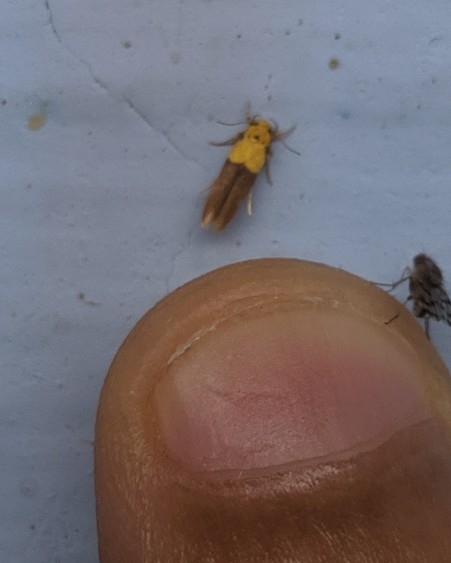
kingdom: Animalia
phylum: Arthropoda
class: Insecta
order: Lepidoptera
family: Stathmopodidae
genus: Stathmopoda
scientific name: Stathmopoda auriferella
